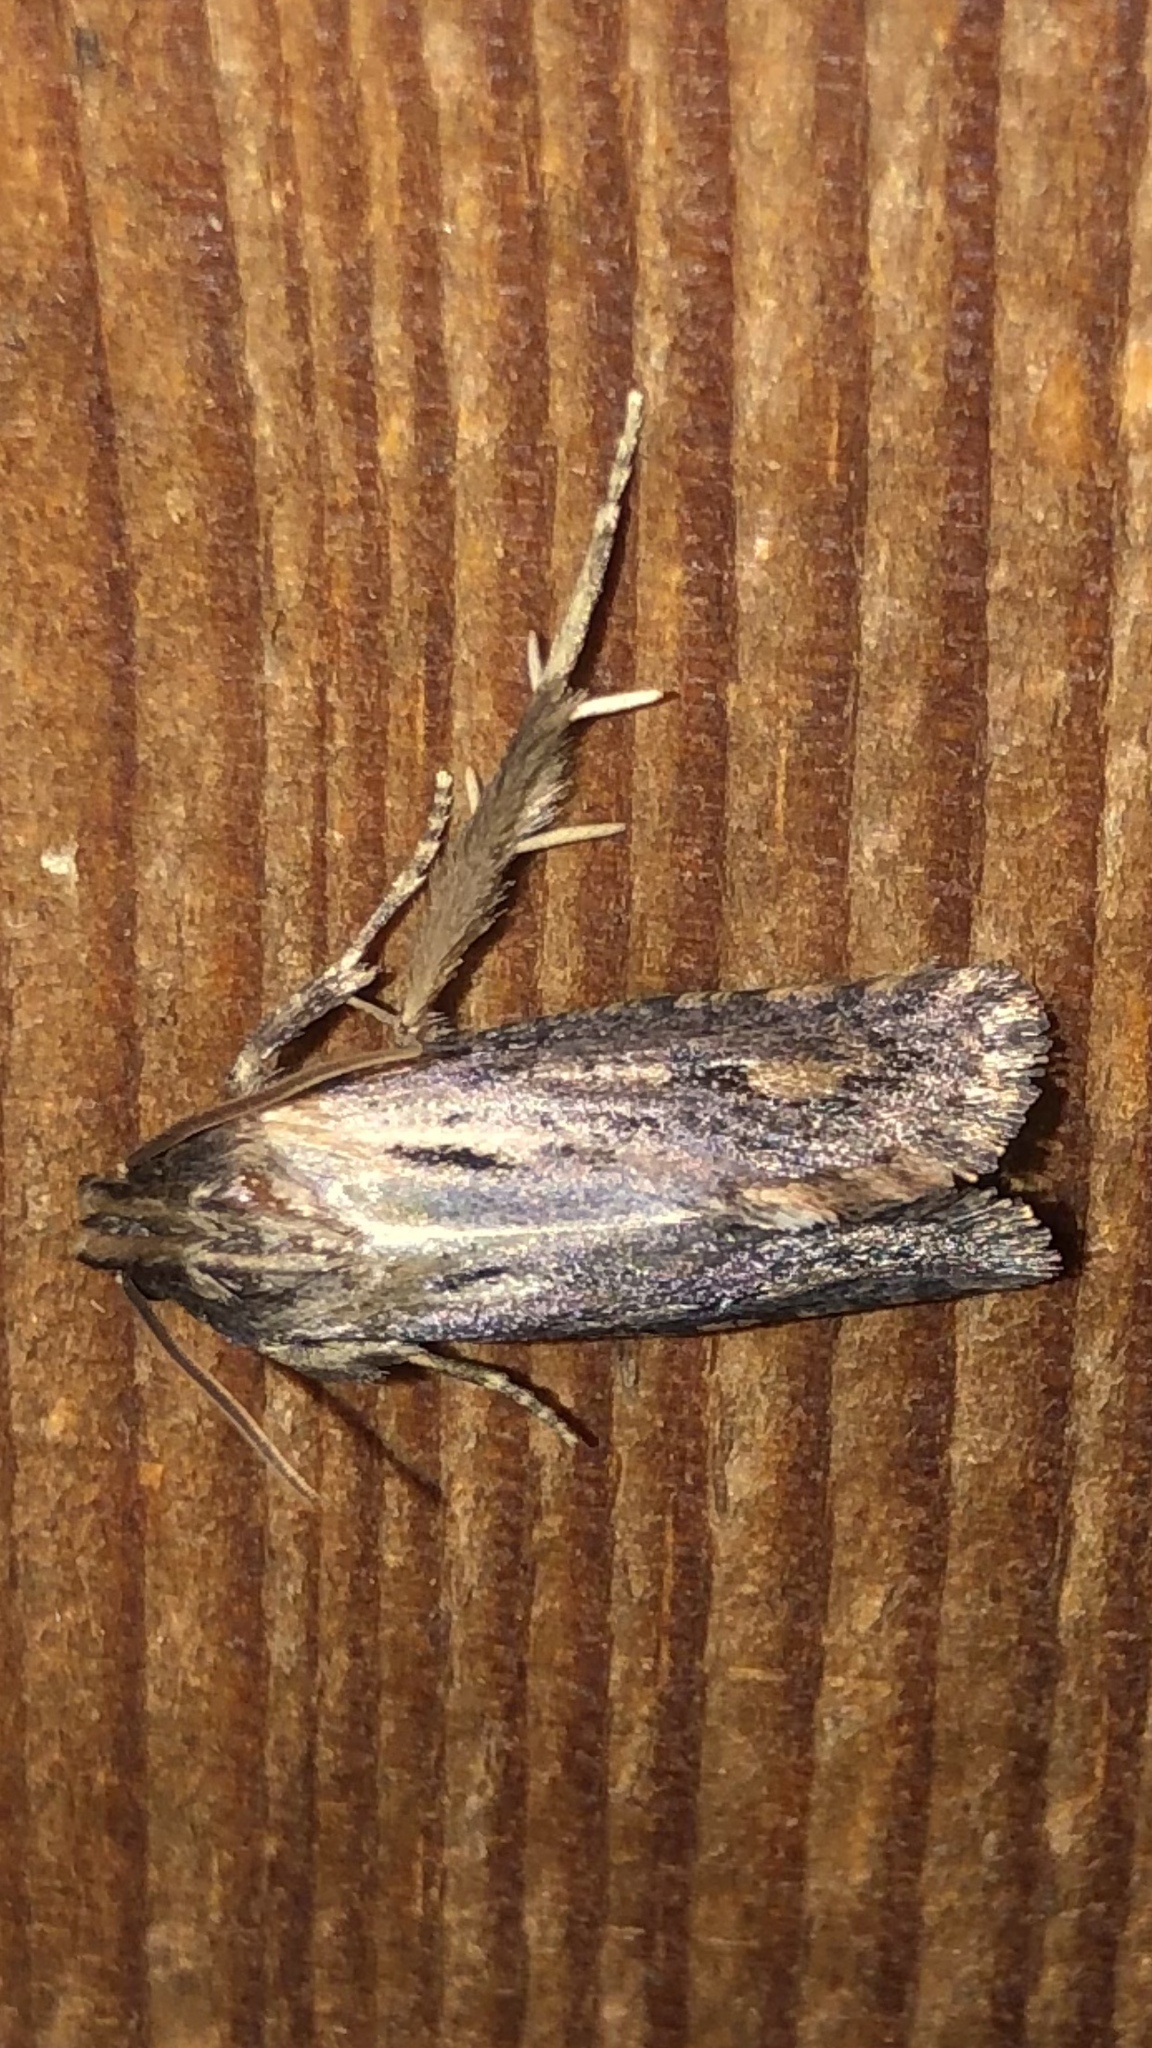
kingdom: Animalia
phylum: Arthropoda
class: Insecta
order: Lepidoptera
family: Tineidae
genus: Acrolophus
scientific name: Acrolophus popeanella
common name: Clemens' grass tubeworm moth
